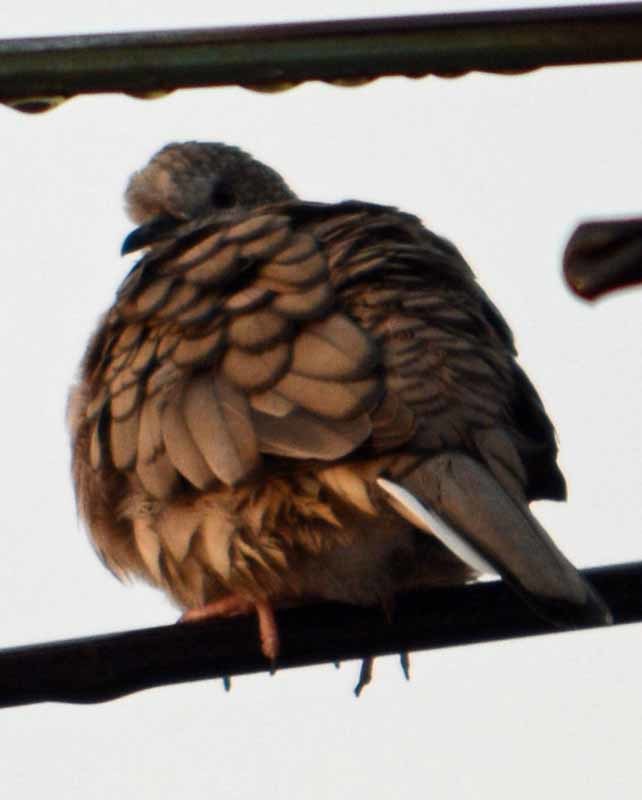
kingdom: Animalia
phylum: Chordata
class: Aves
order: Columbiformes
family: Columbidae
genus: Columbina
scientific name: Columbina inca
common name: Inca dove
